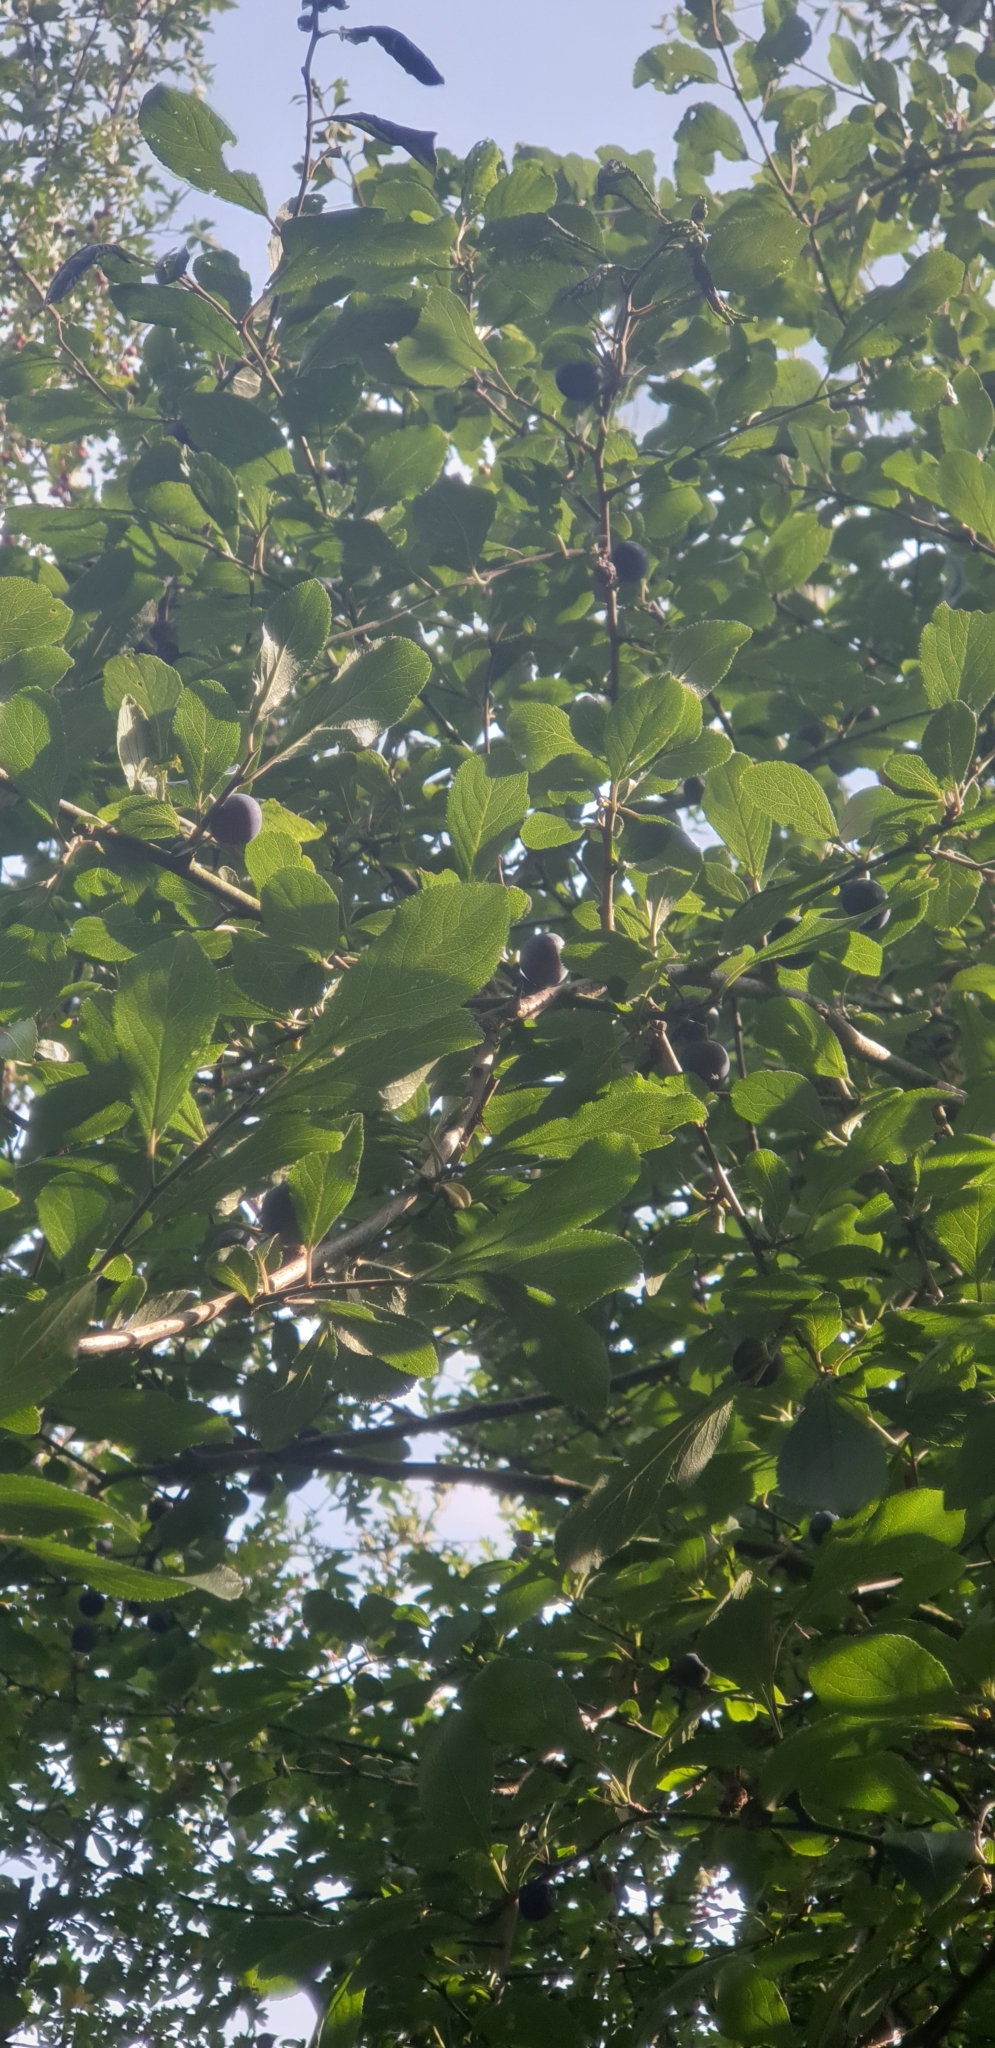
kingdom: Plantae
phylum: Tracheophyta
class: Magnoliopsida
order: Rosales
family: Rosaceae
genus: Prunus
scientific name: Prunus spinosa
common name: Blackthorn
